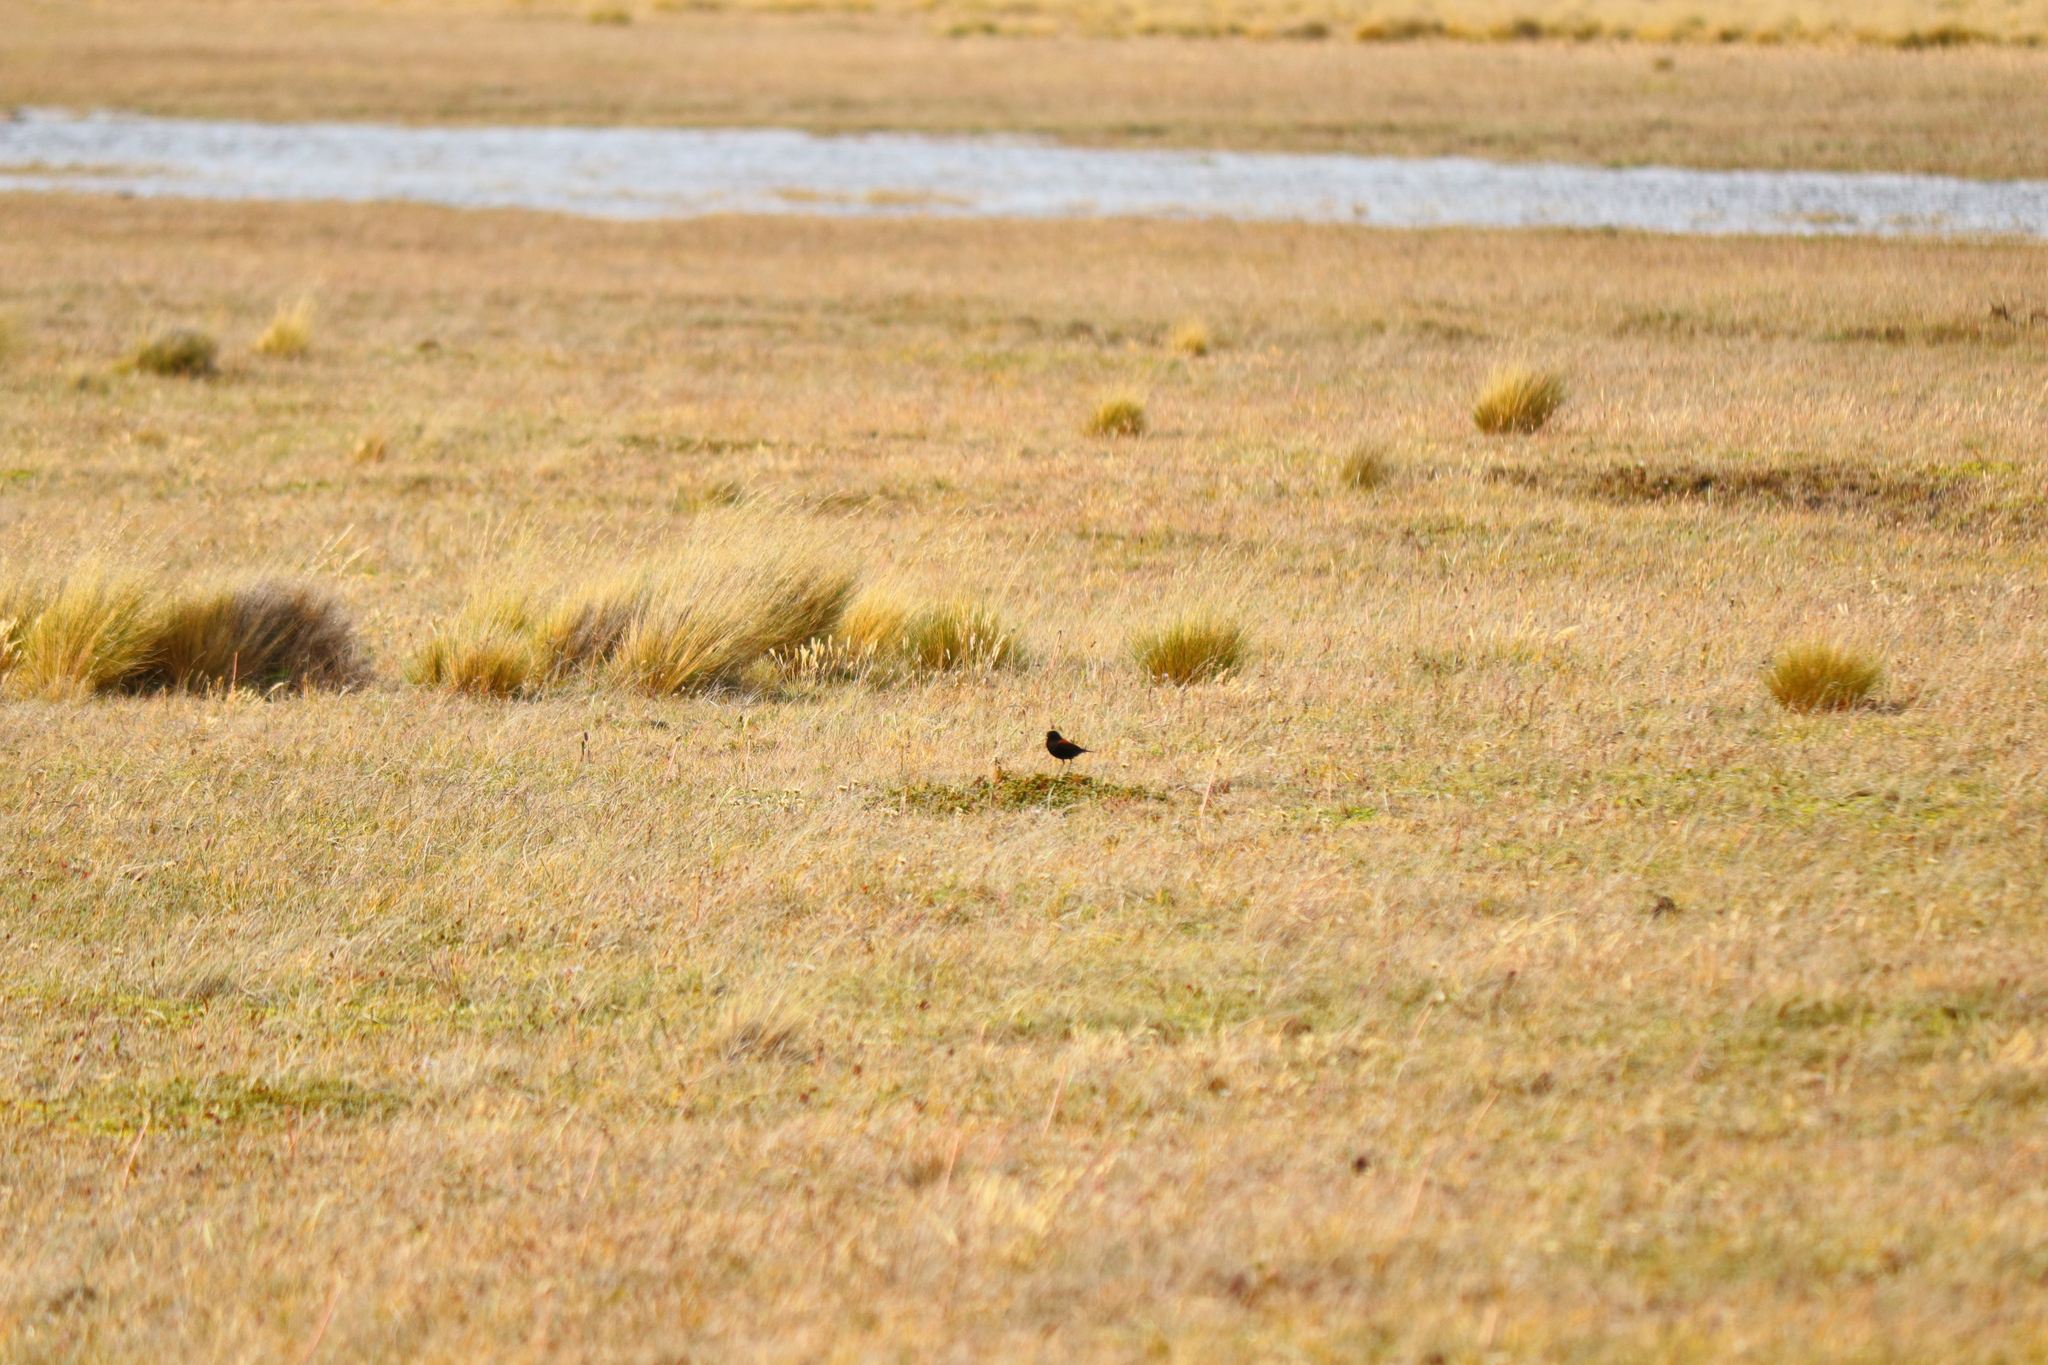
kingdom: Animalia
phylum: Chordata
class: Aves
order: Passeriformes
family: Tyrannidae
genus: Lessonia
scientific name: Lessonia rufa
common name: Austral negrito
